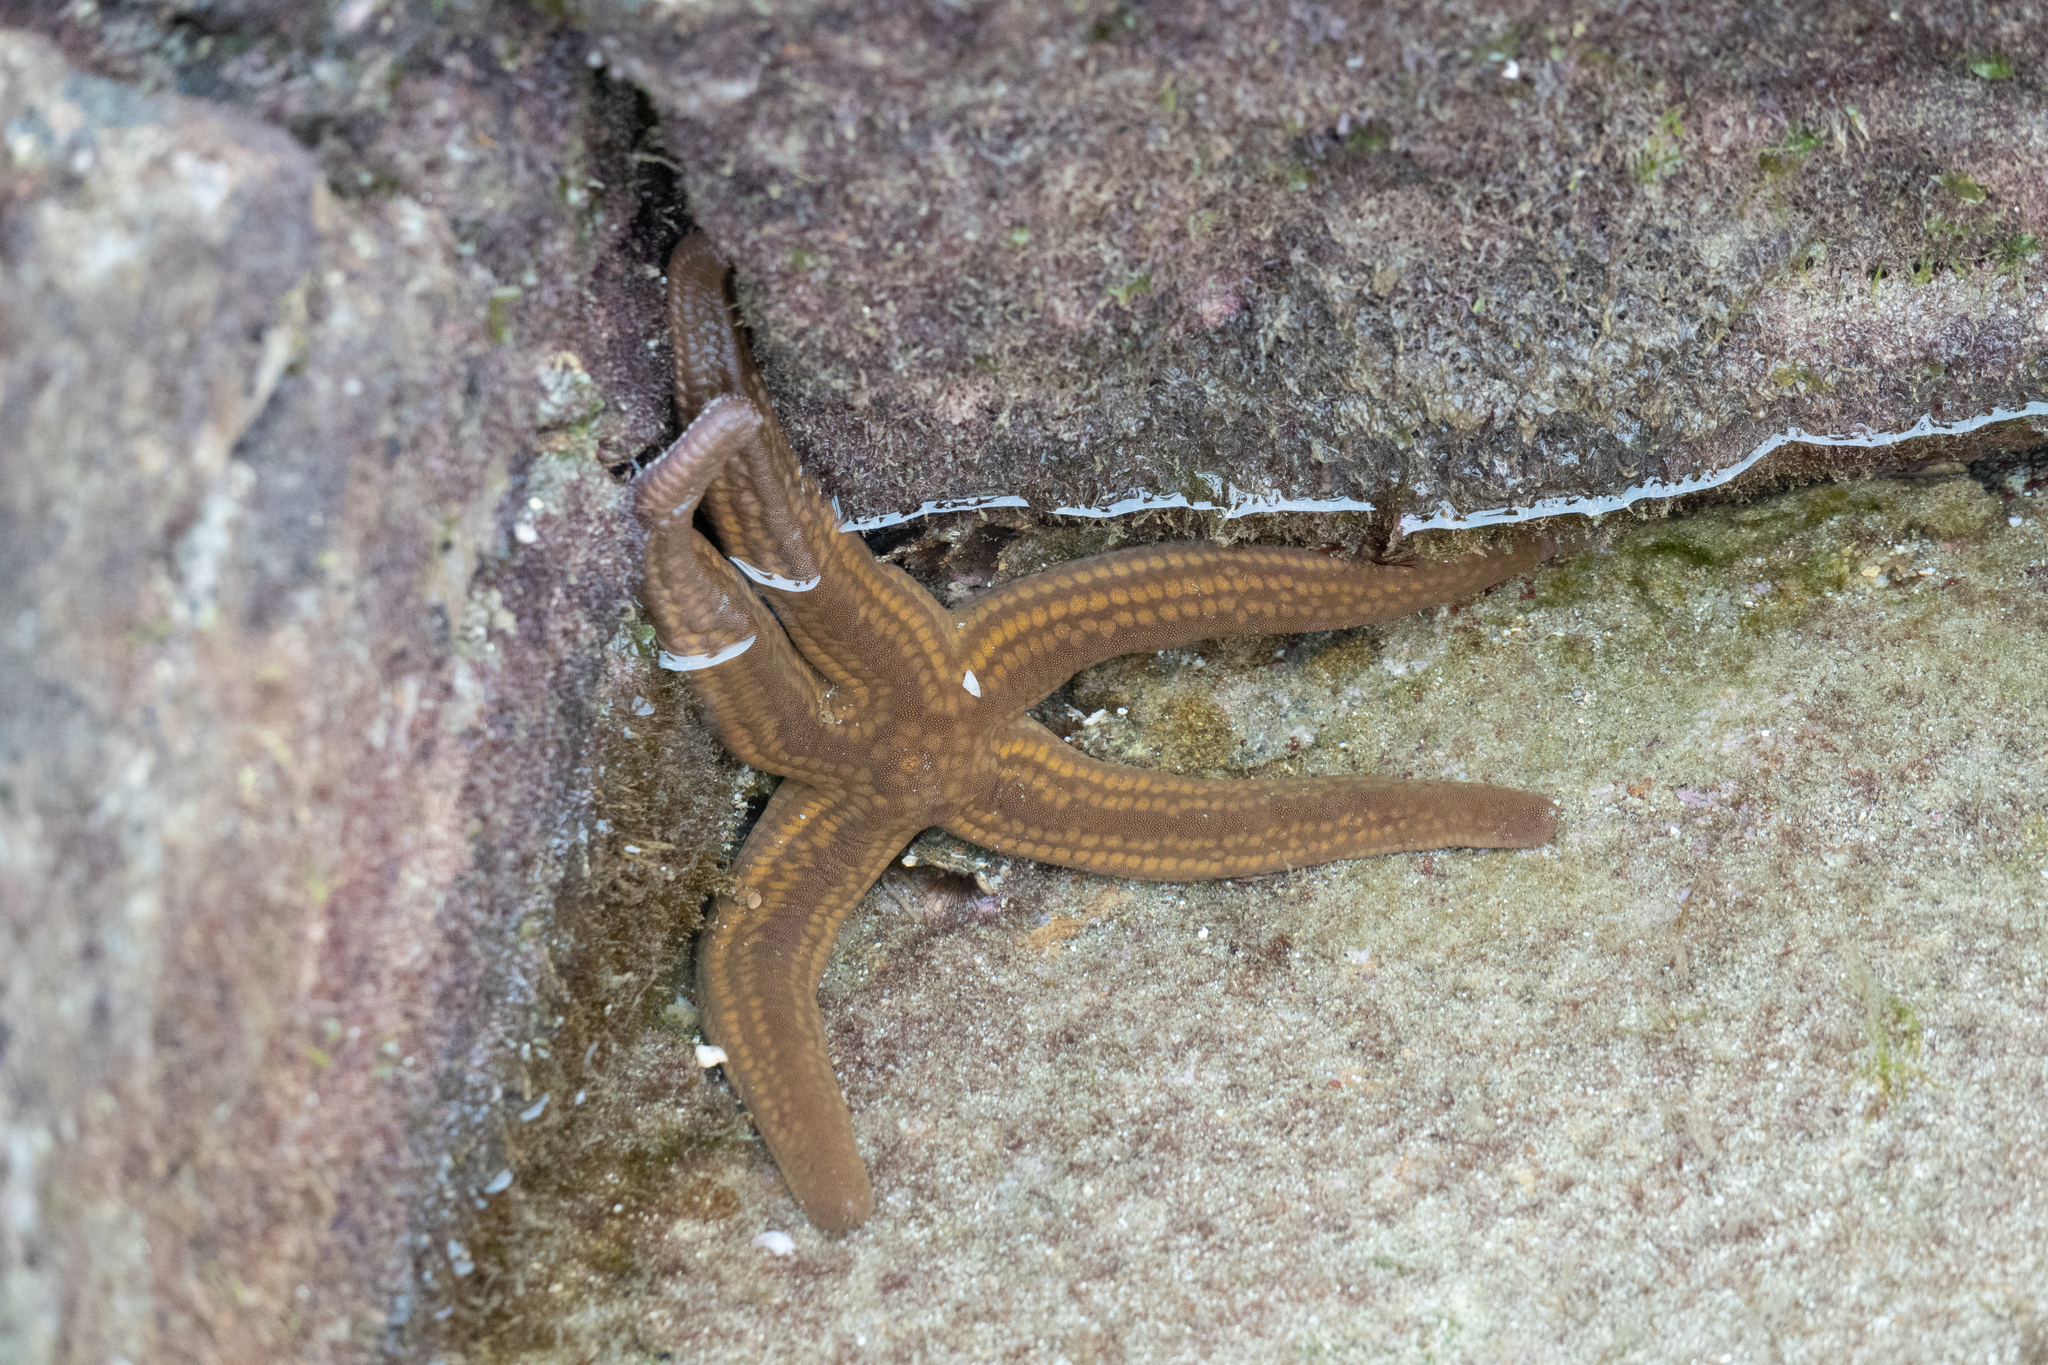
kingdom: Animalia
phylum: Echinodermata
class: Asteroidea
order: Valvatida
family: Ophidiasteridae
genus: Pharia
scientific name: Pharia pyramidata
